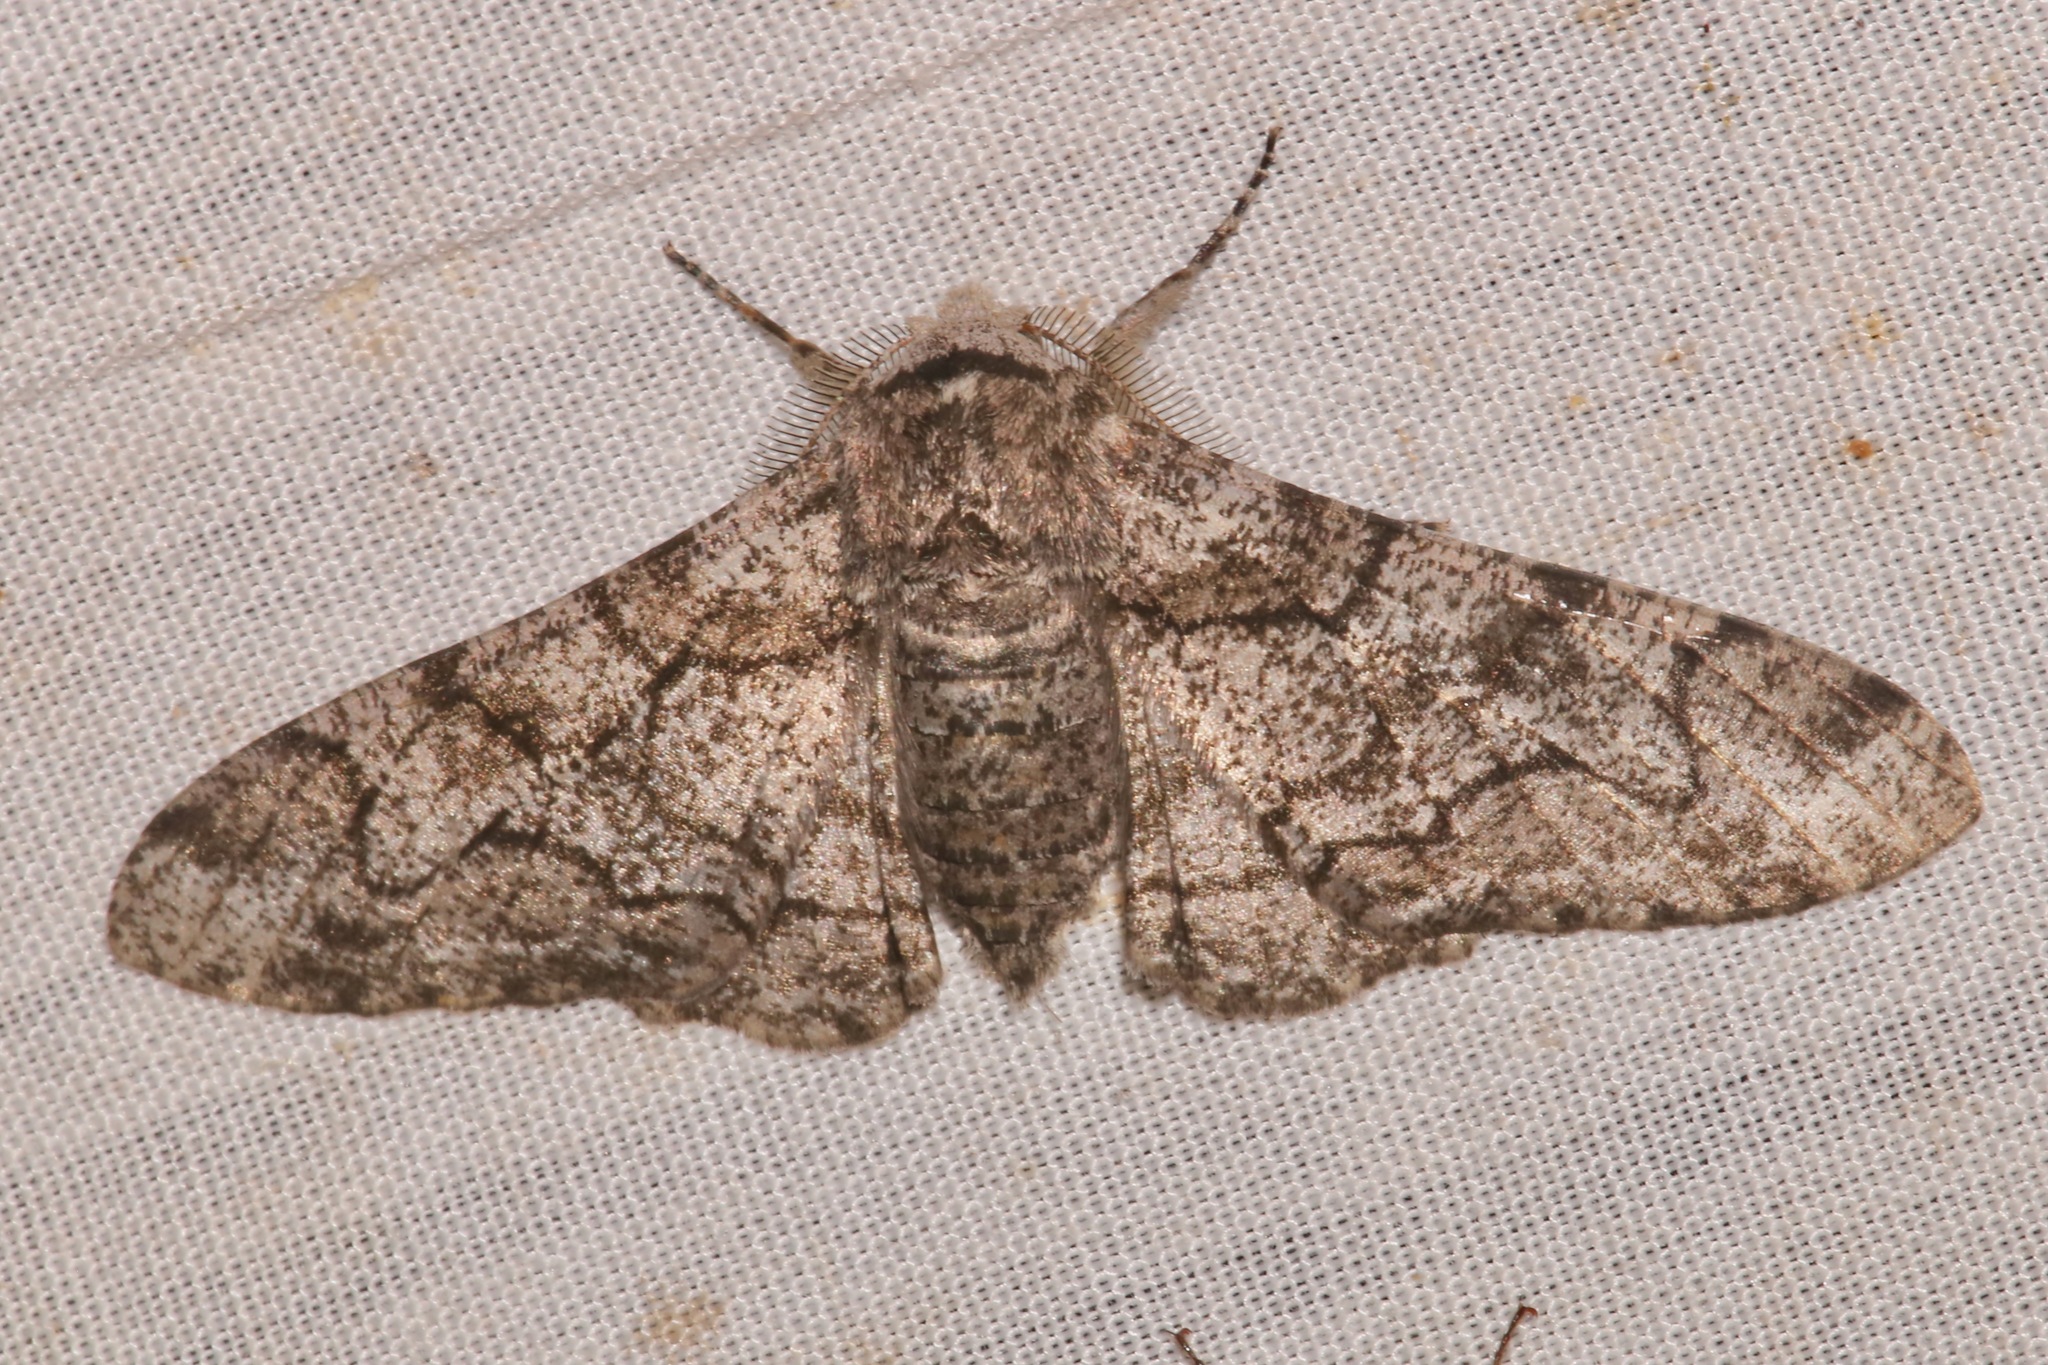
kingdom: Animalia
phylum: Arthropoda
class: Insecta
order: Lepidoptera
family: Geometridae
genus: Biston
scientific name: Biston betularia
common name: Peppered moth
